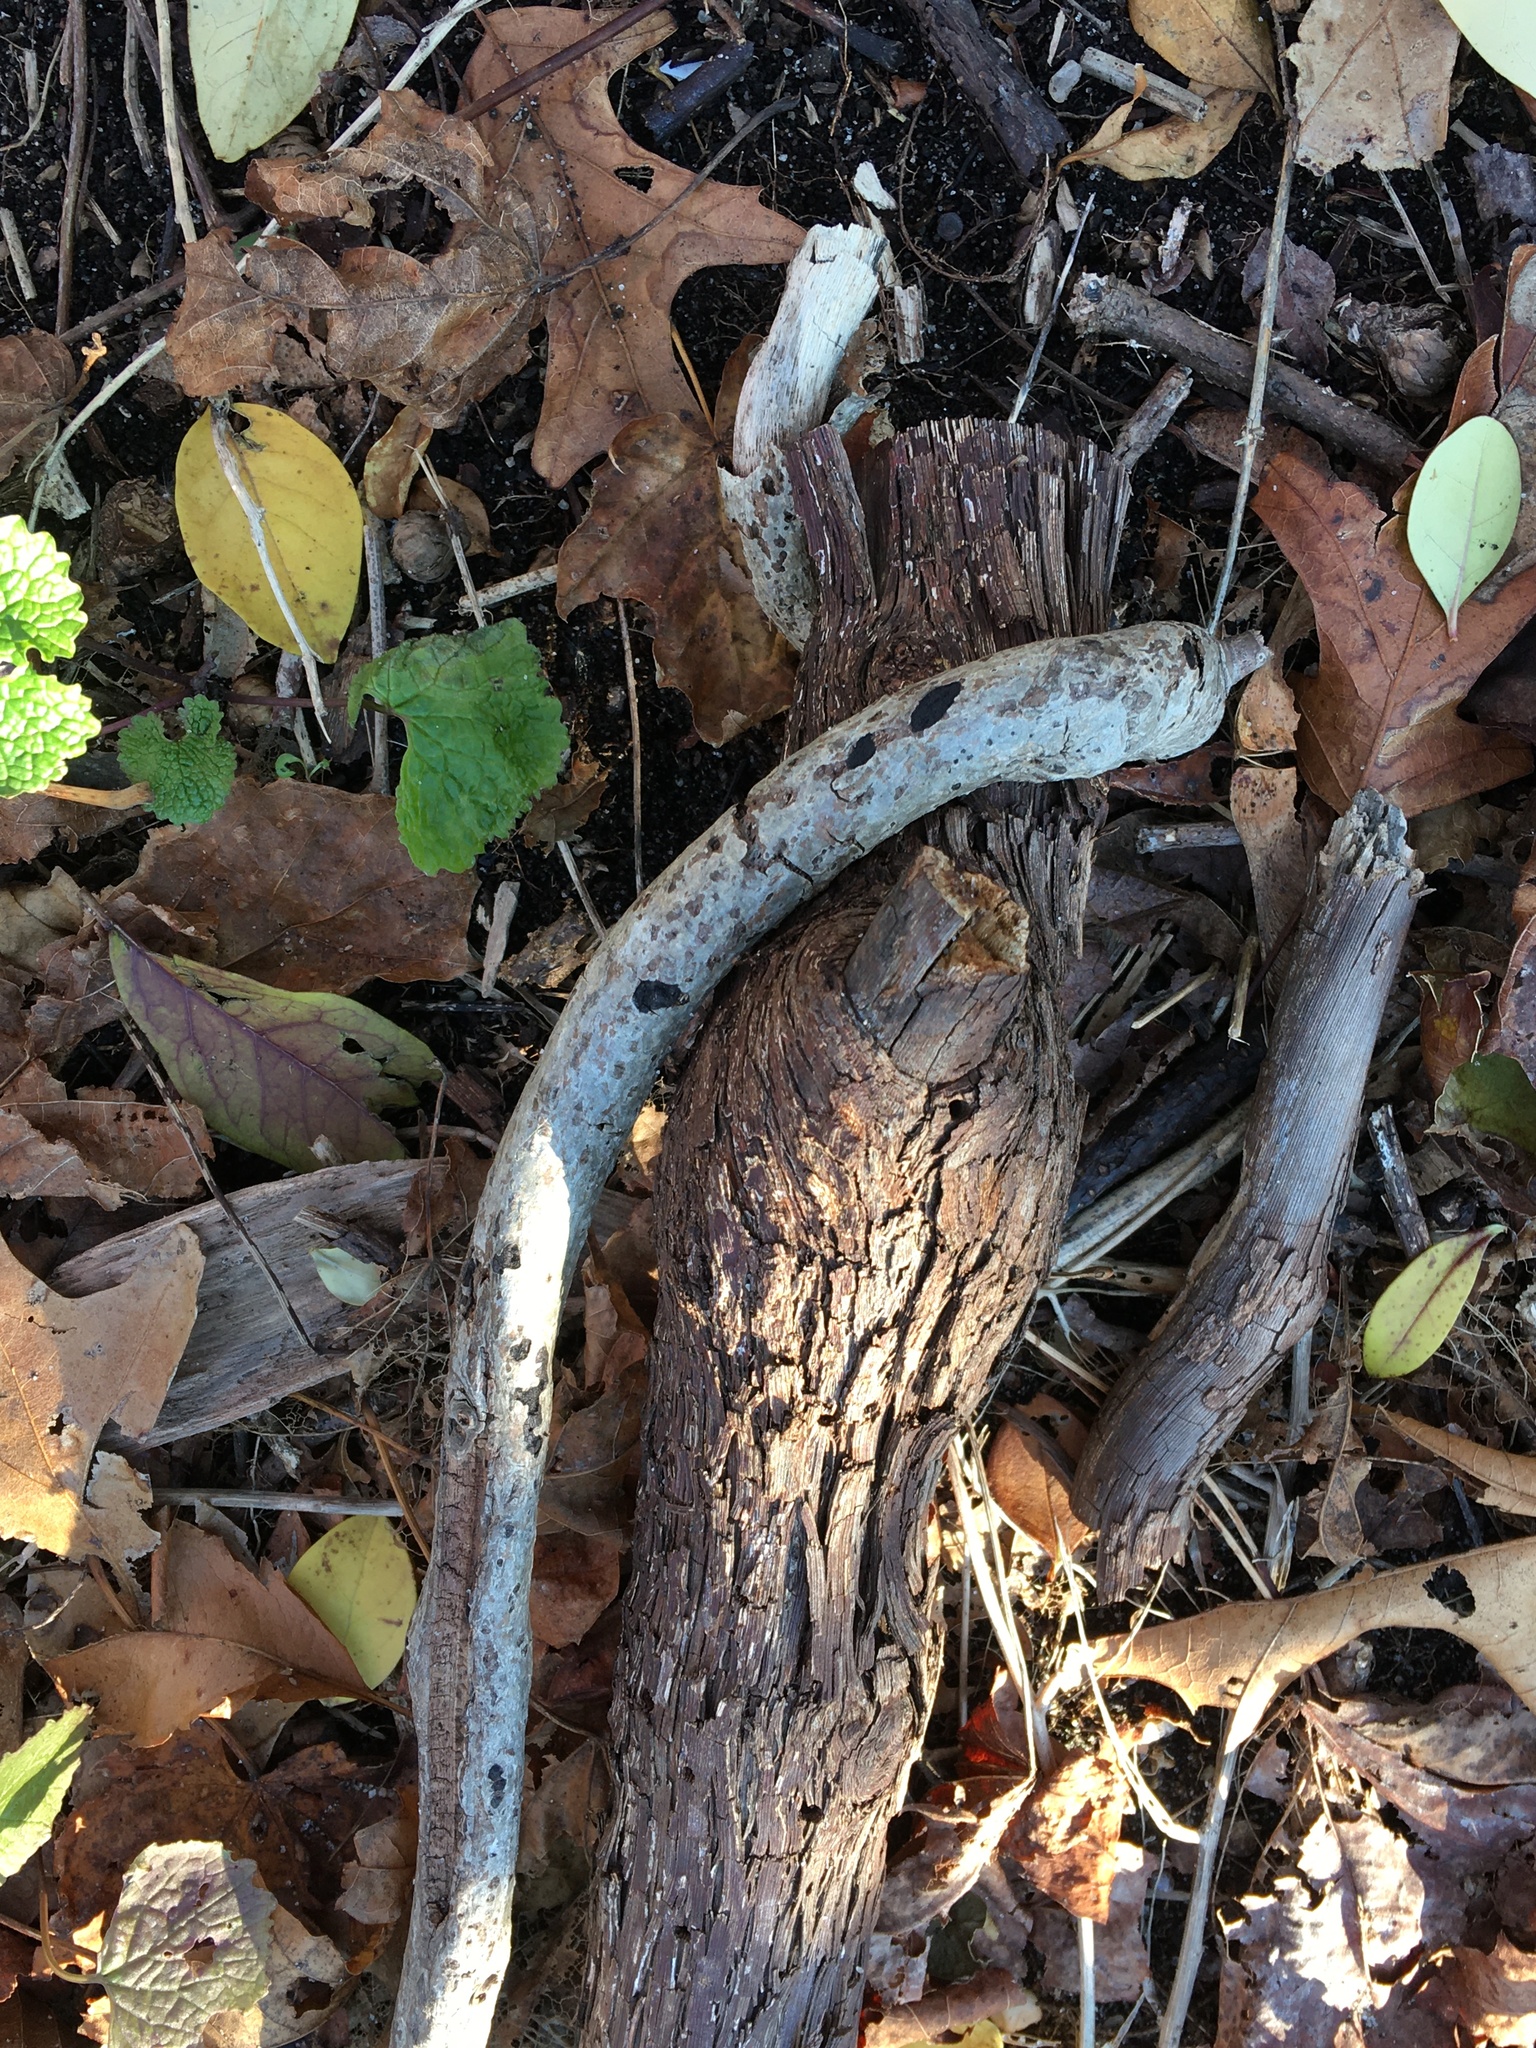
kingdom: Plantae
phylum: Tracheophyta
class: Magnoliopsida
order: Vitales
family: Vitaceae
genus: Vitis
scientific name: Vitis
